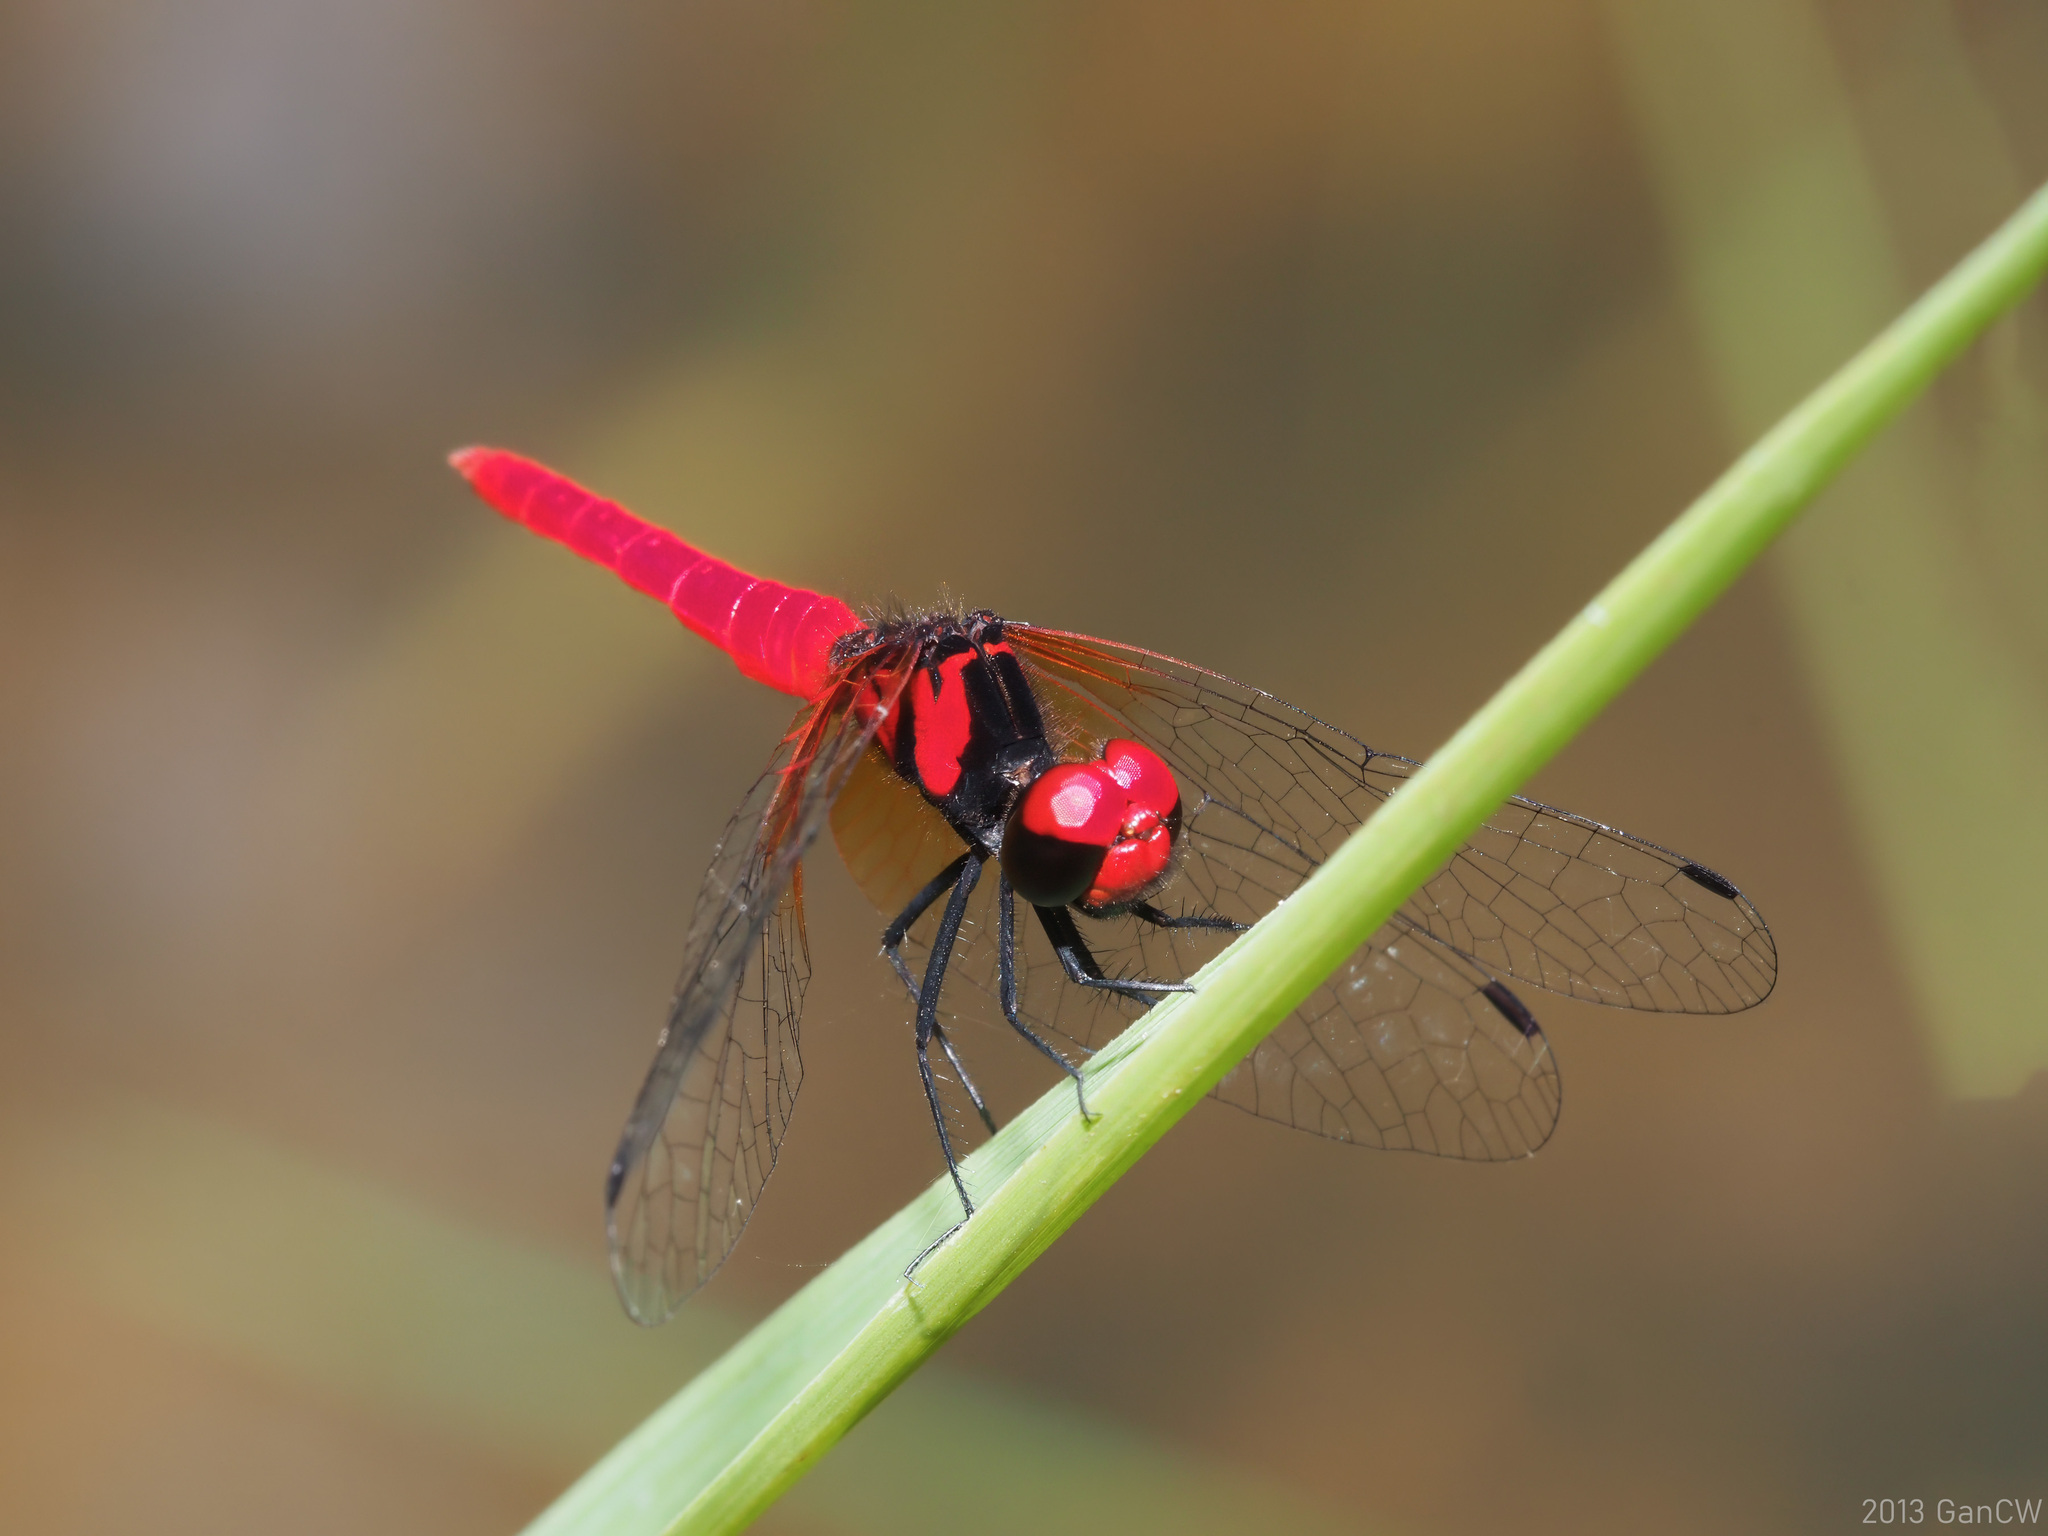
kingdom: Animalia
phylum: Arthropoda
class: Insecta
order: Odonata
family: Libellulidae
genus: Nannophya
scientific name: Nannophya pygmaea
